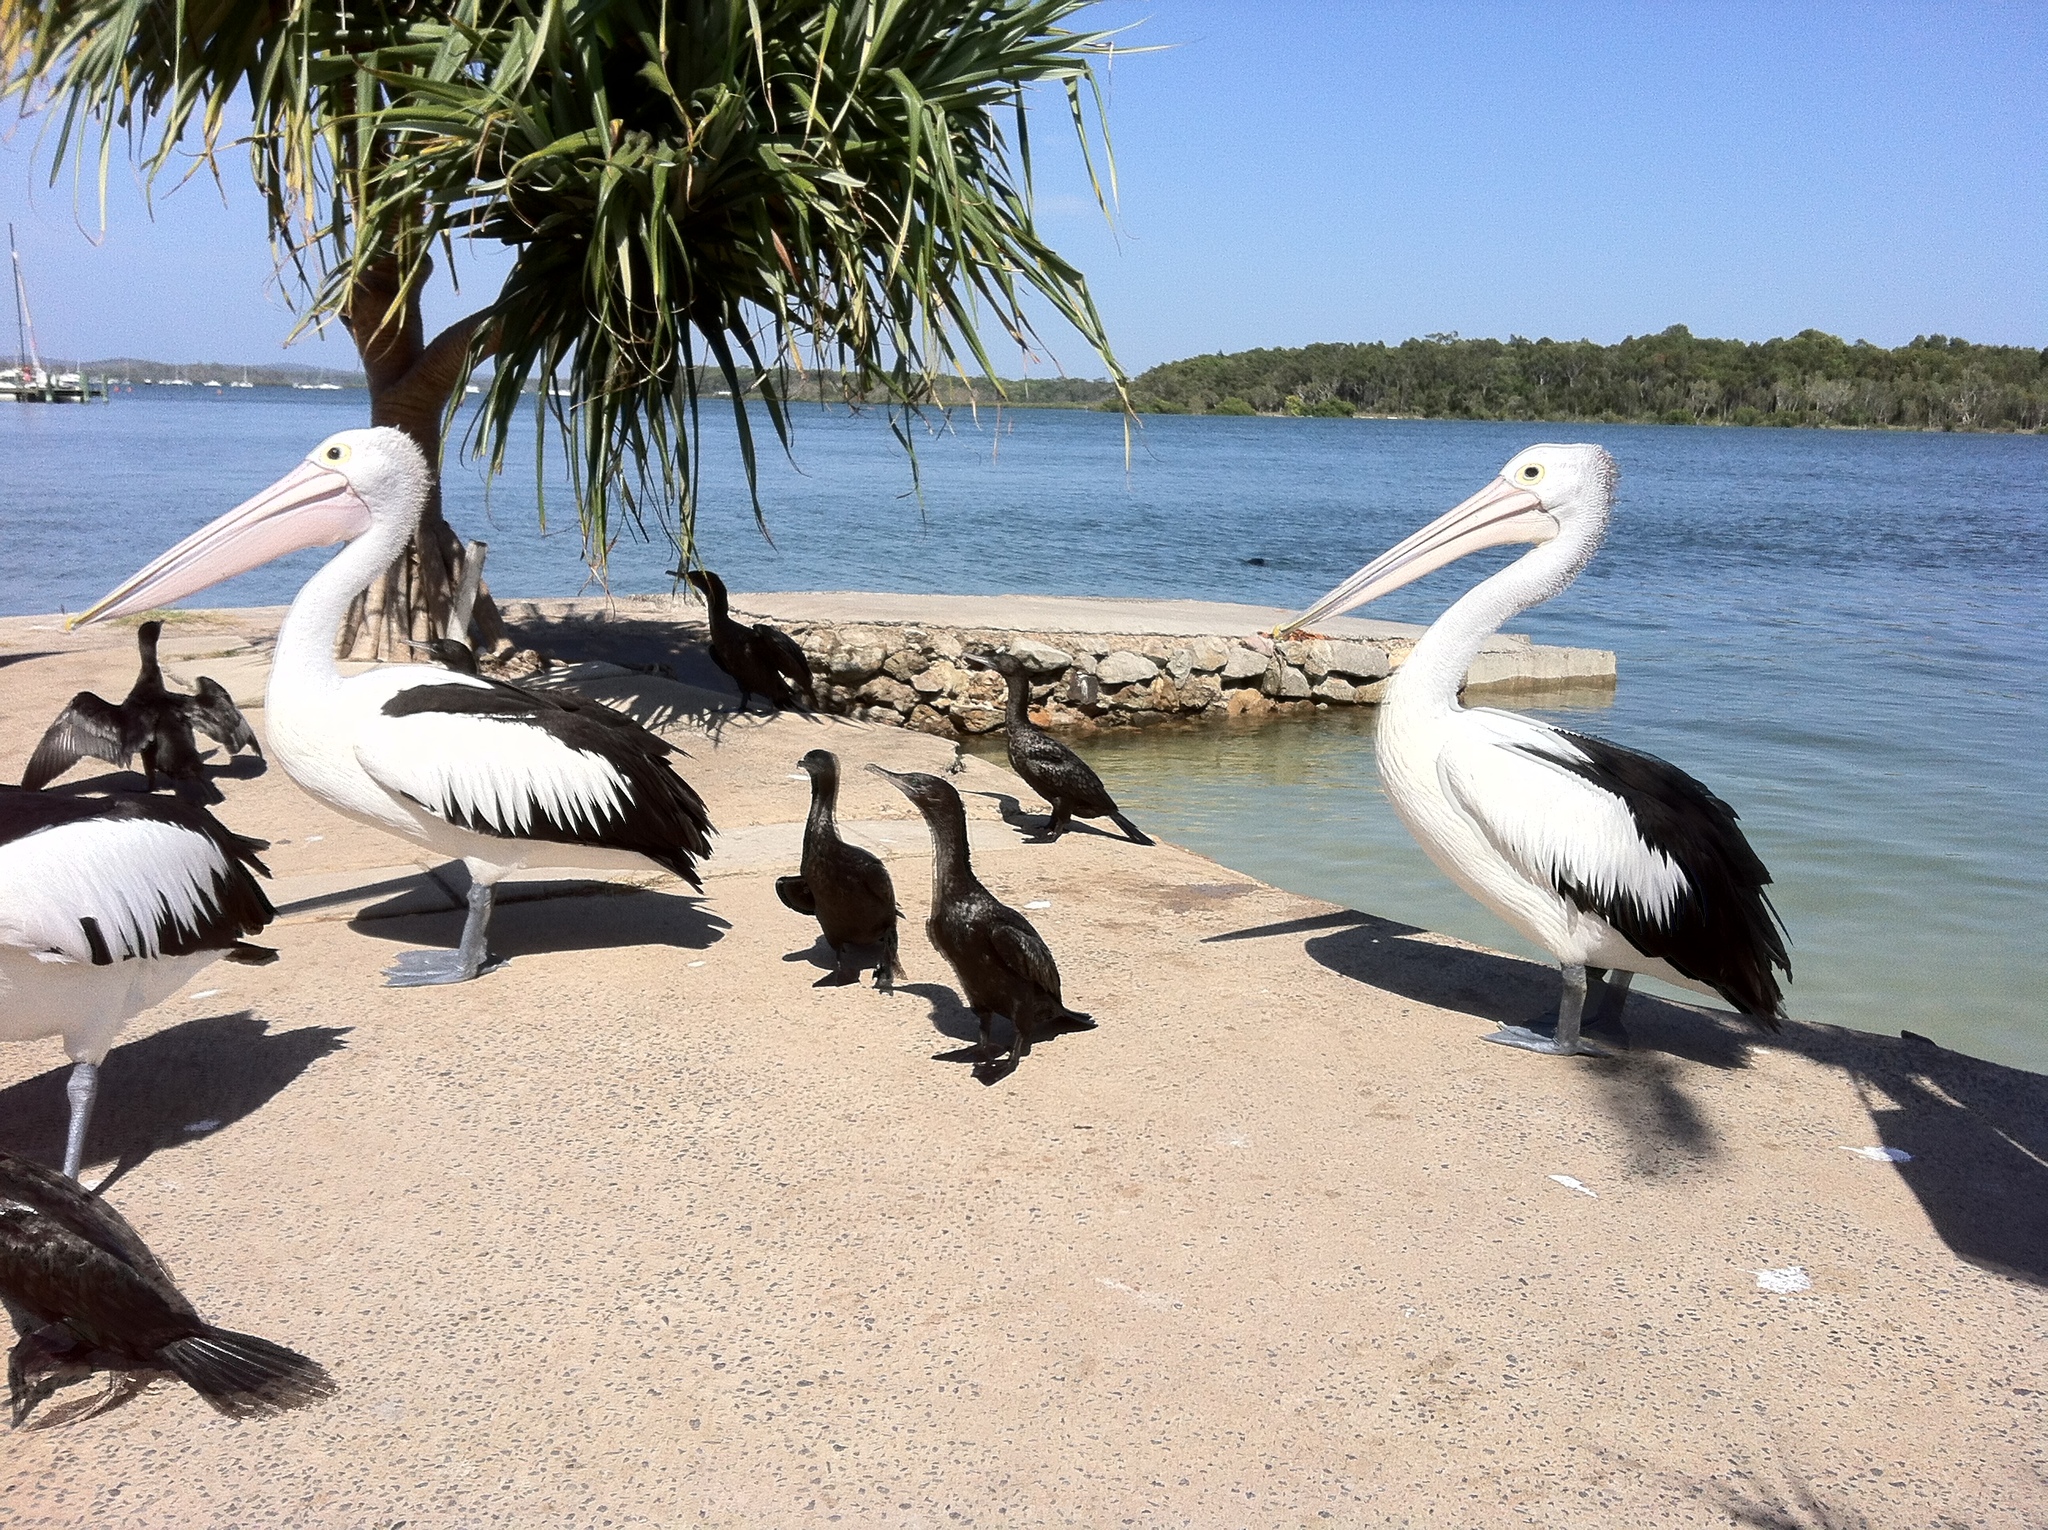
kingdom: Animalia
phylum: Chordata
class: Aves
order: Suliformes
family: Phalacrocoracidae
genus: Phalacrocorax
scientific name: Phalacrocorax sulcirostris
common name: Little black cormorant
